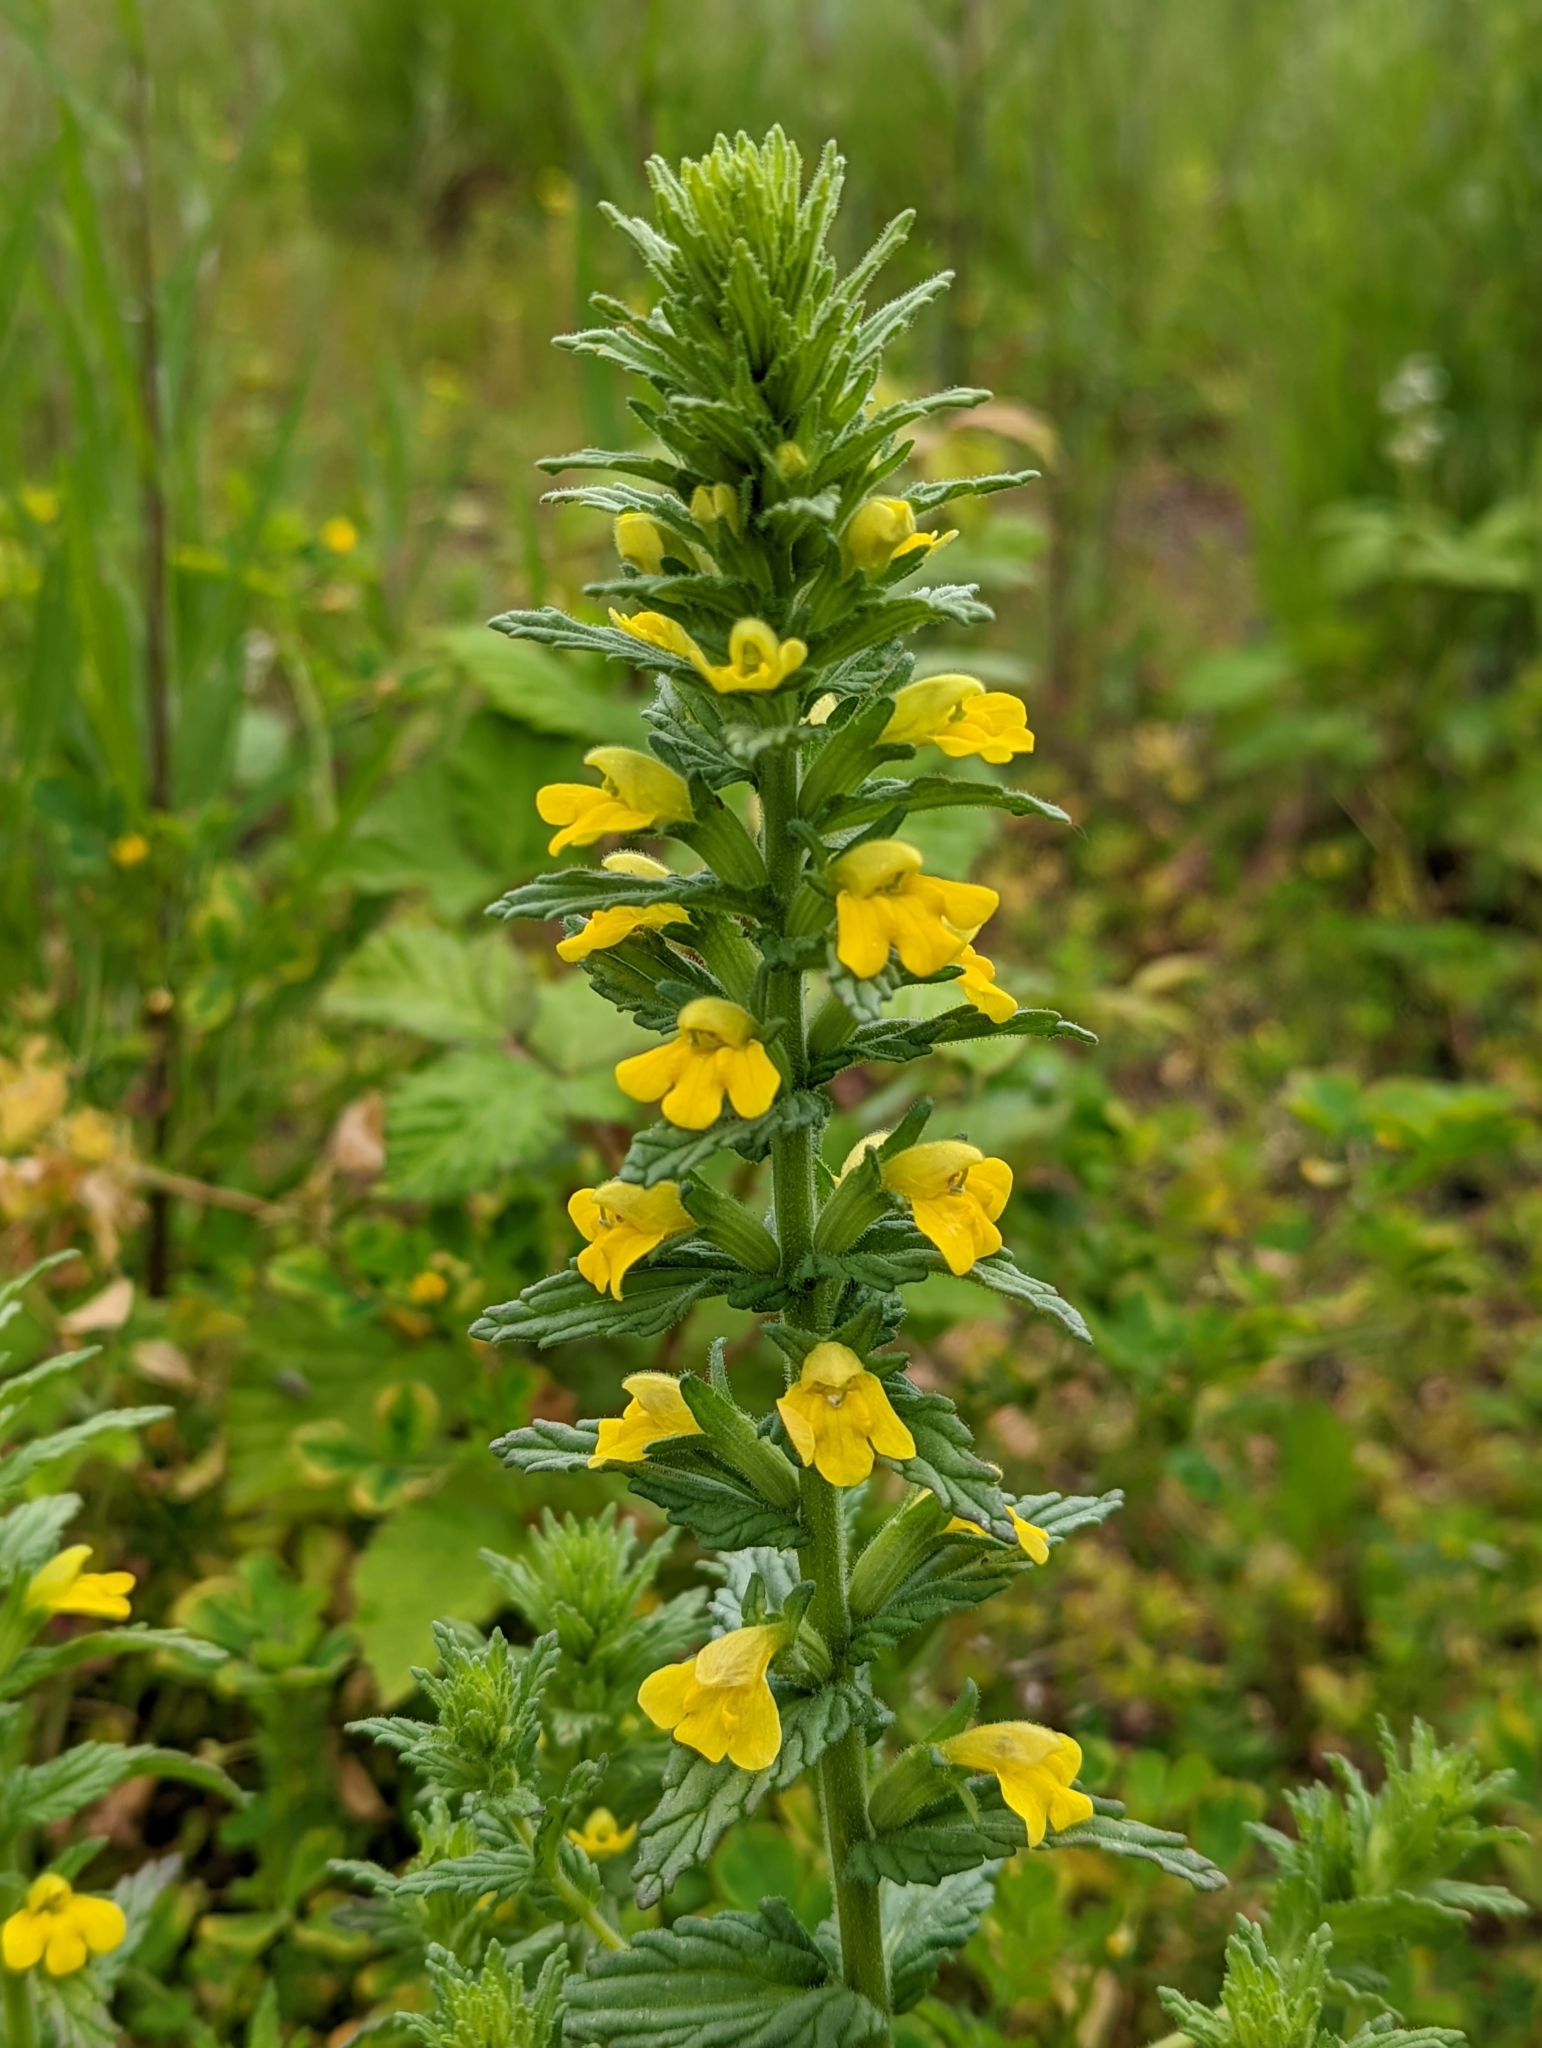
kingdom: Plantae
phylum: Tracheophyta
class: Magnoliopsida
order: Lamiales
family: Orobanchaceae
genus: Bellardia
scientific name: Bellardia viscosa
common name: Sticky parentucellia
